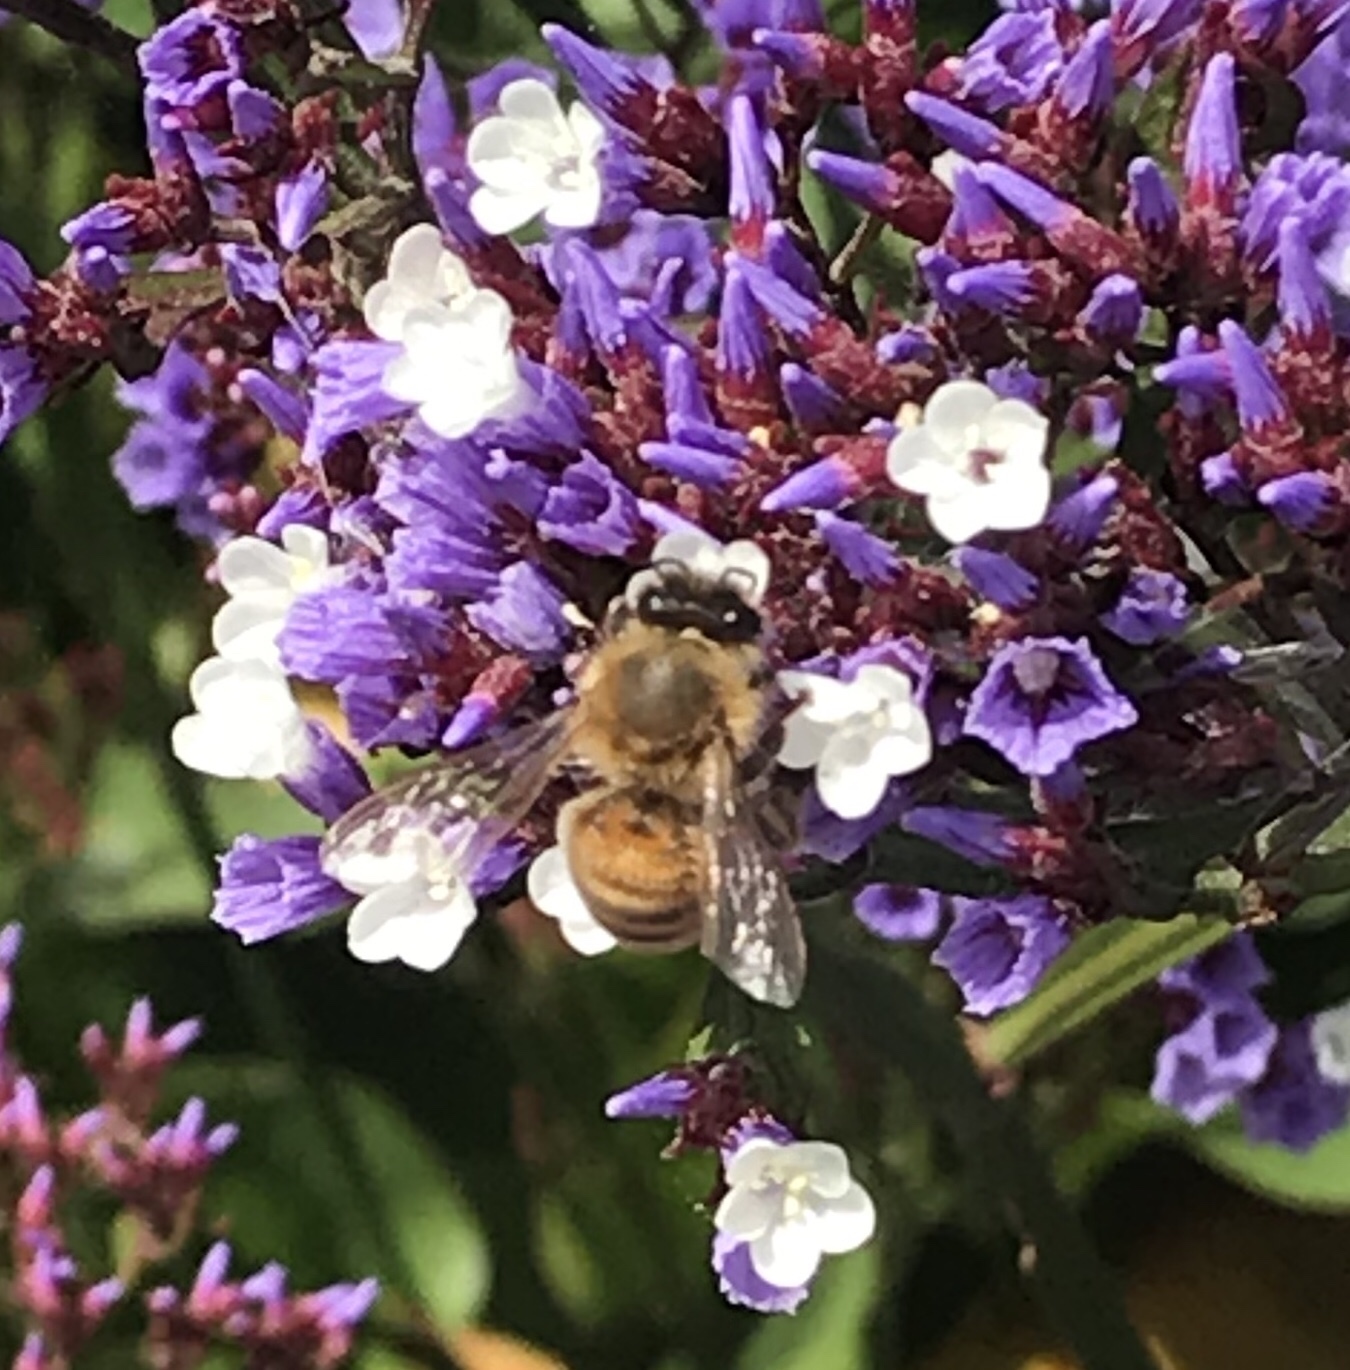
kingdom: Animalia
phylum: Arthropoda
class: Insecta
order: Hymenoptera
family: Apidae
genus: Apis
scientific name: Apis mellifera
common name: Honey bee
